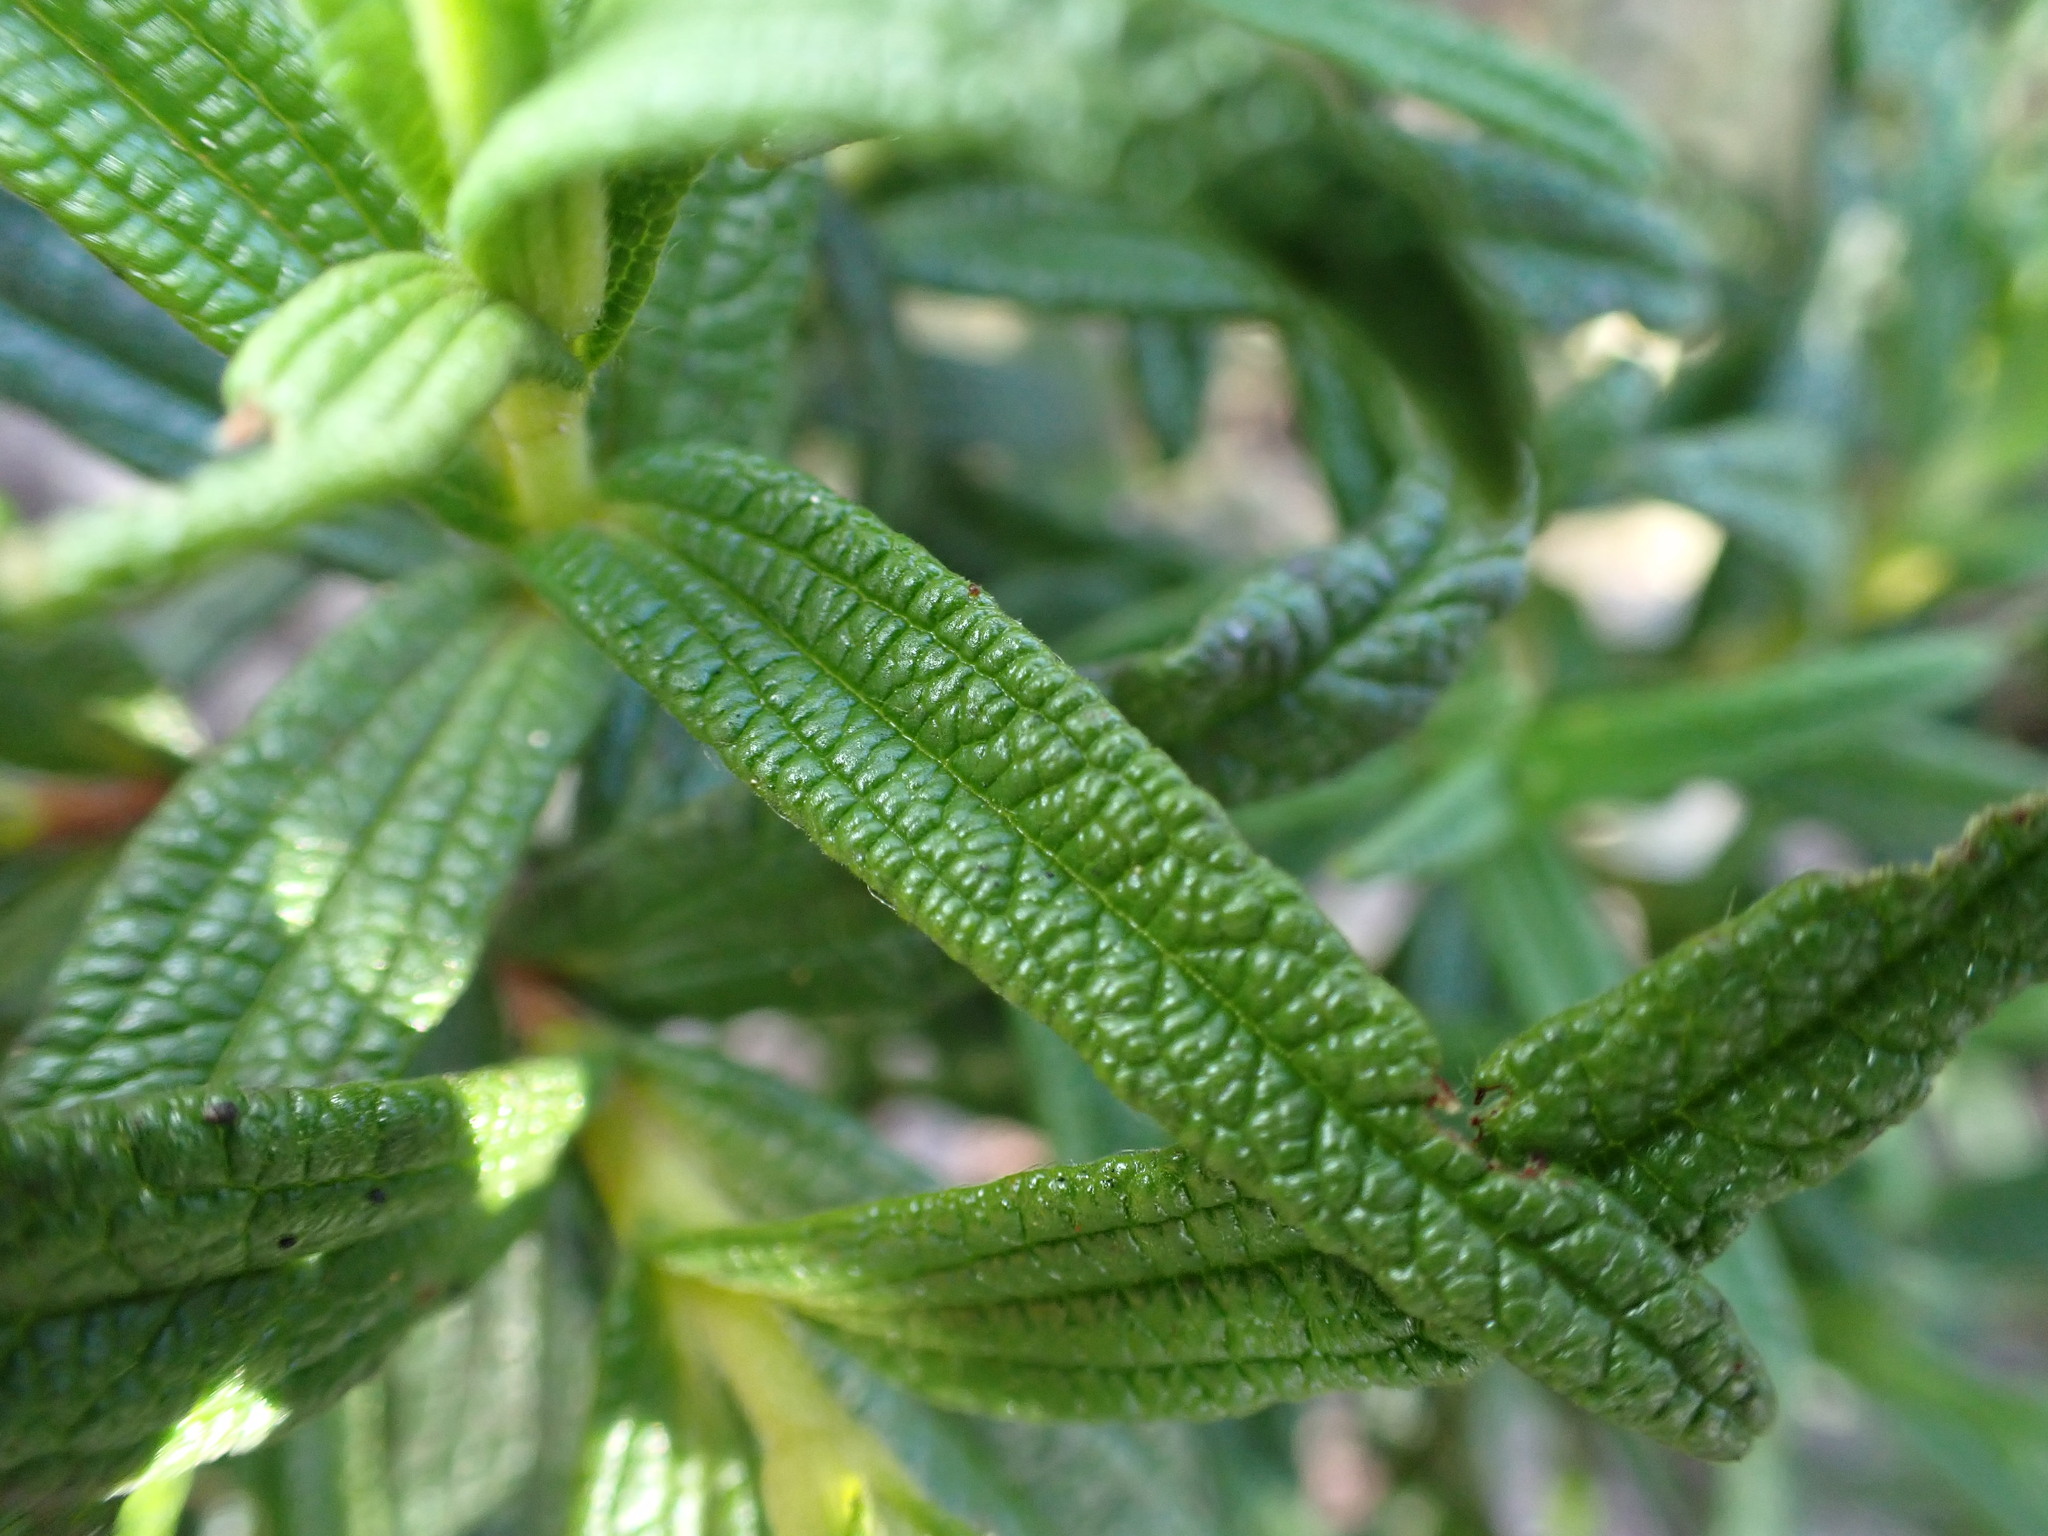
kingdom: Plantae
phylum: Tracheophyta
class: Magnoliopsida
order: Malvales
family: Cistaceae
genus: Cistus
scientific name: Cistus monspeliensis
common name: Montpelier cistus
